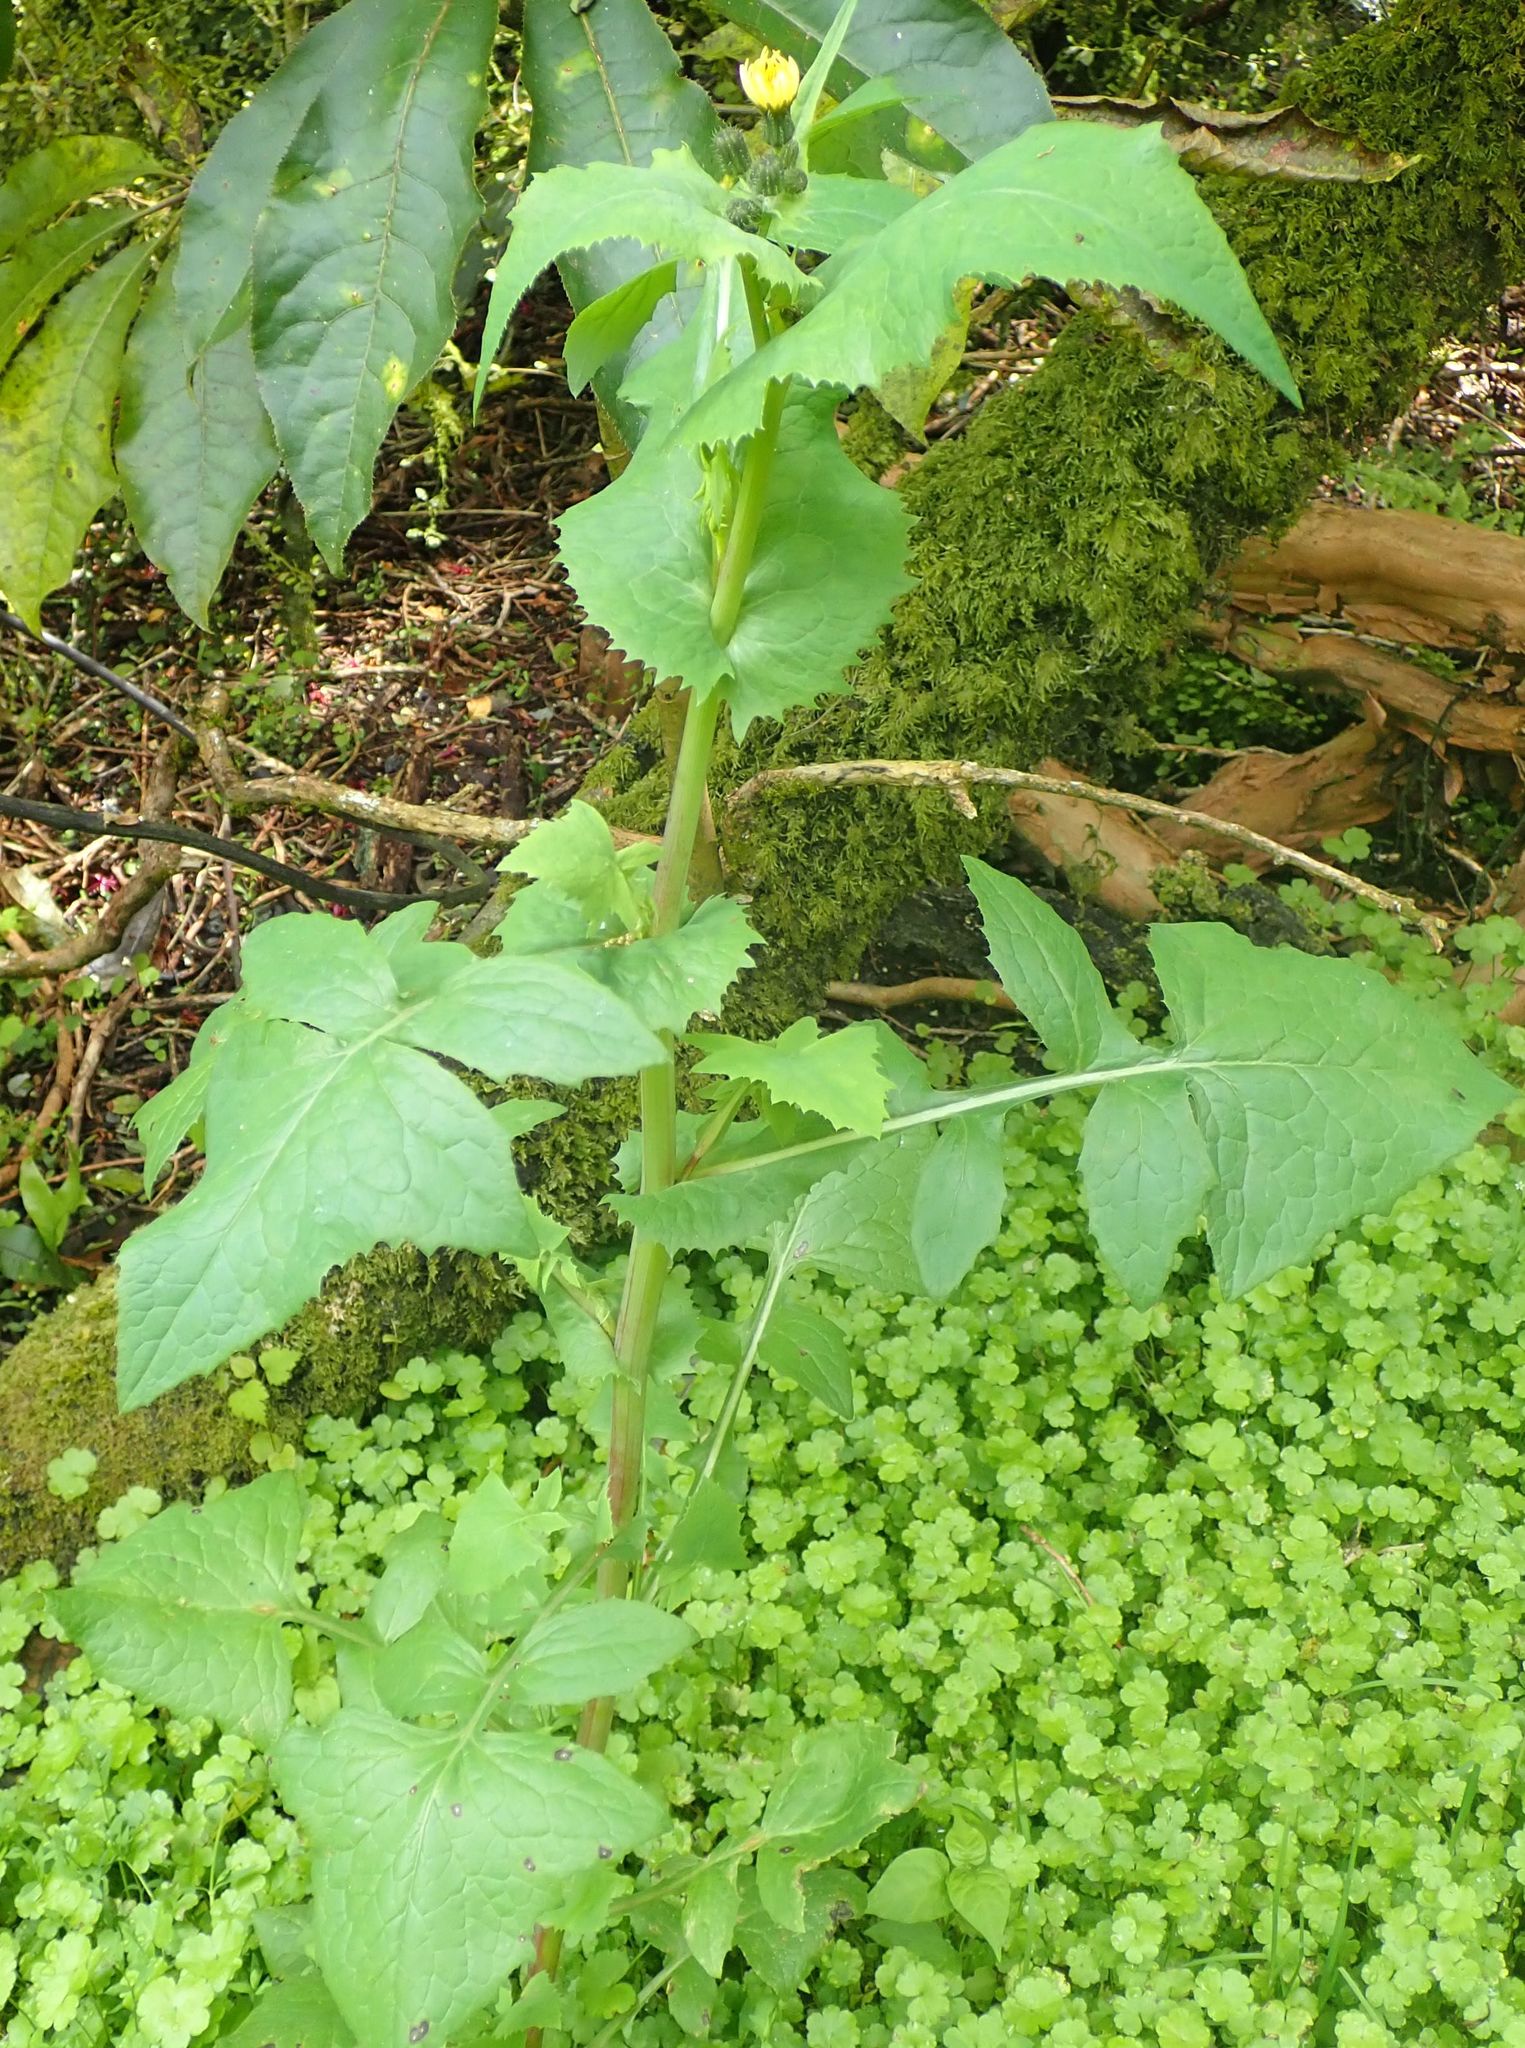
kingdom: Plantae
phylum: Tracheophyta
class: Magnoliopsida
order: Asterales
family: Asteraceae
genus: Sonchus
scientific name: Sonchus oleraceus
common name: Common sowthistle
